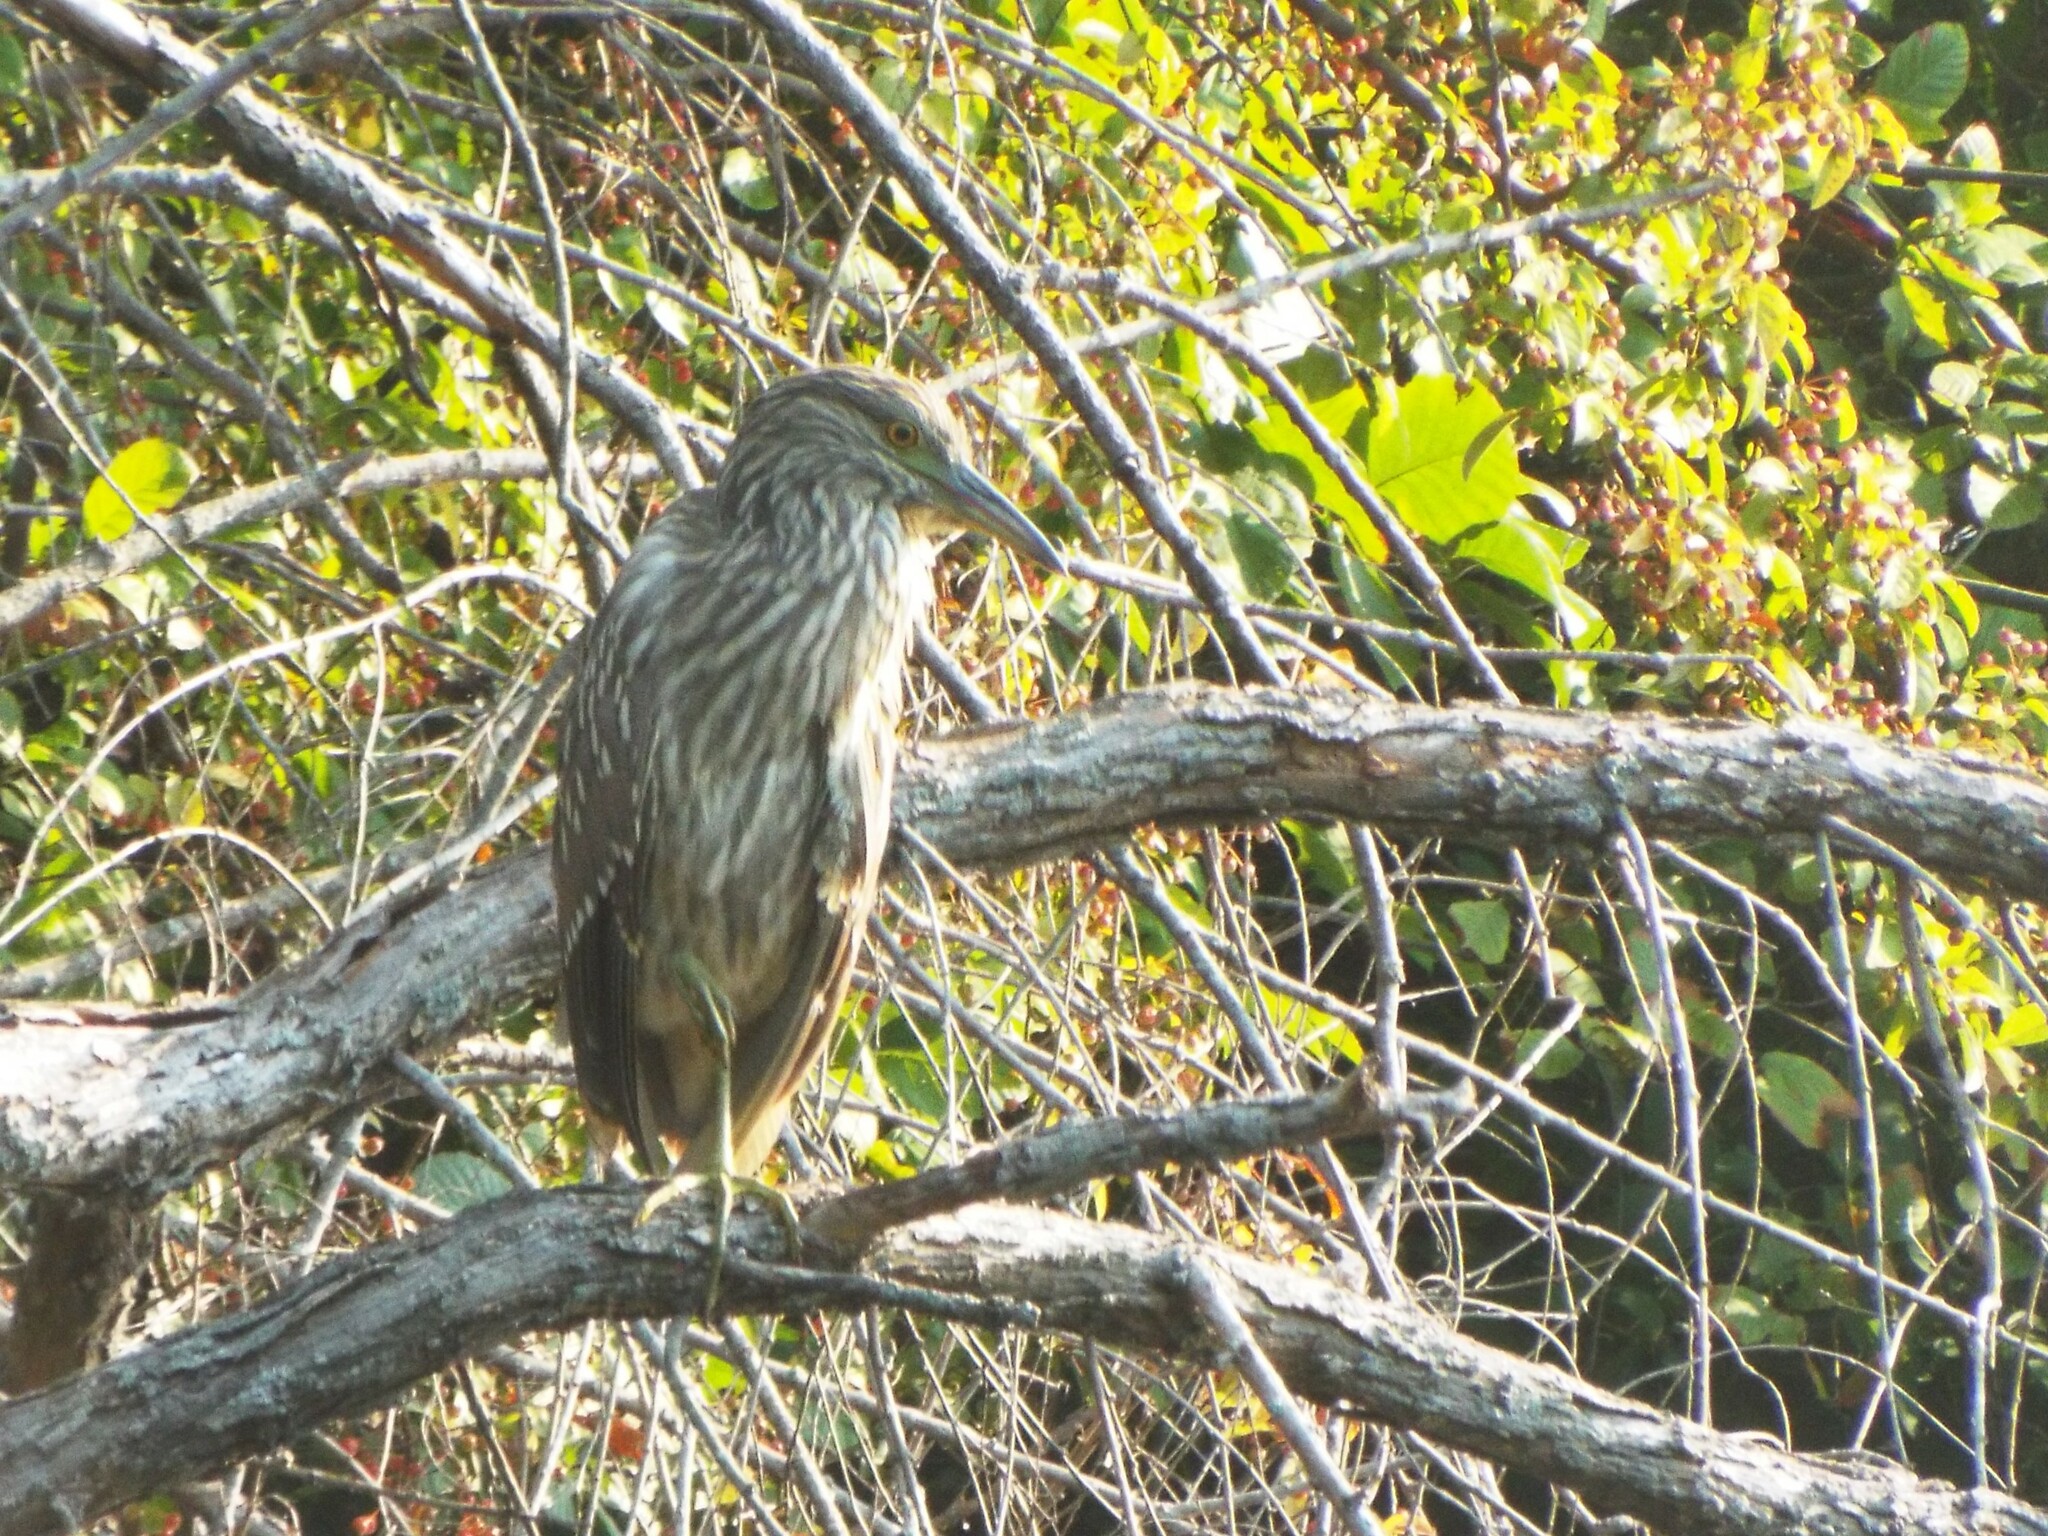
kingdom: Animalia
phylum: Chordata
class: Aves
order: Pelecaniformes
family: Ardeidae
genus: Nycticorax
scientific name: Nycticorax nycticorax
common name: Black-crowned night heron
